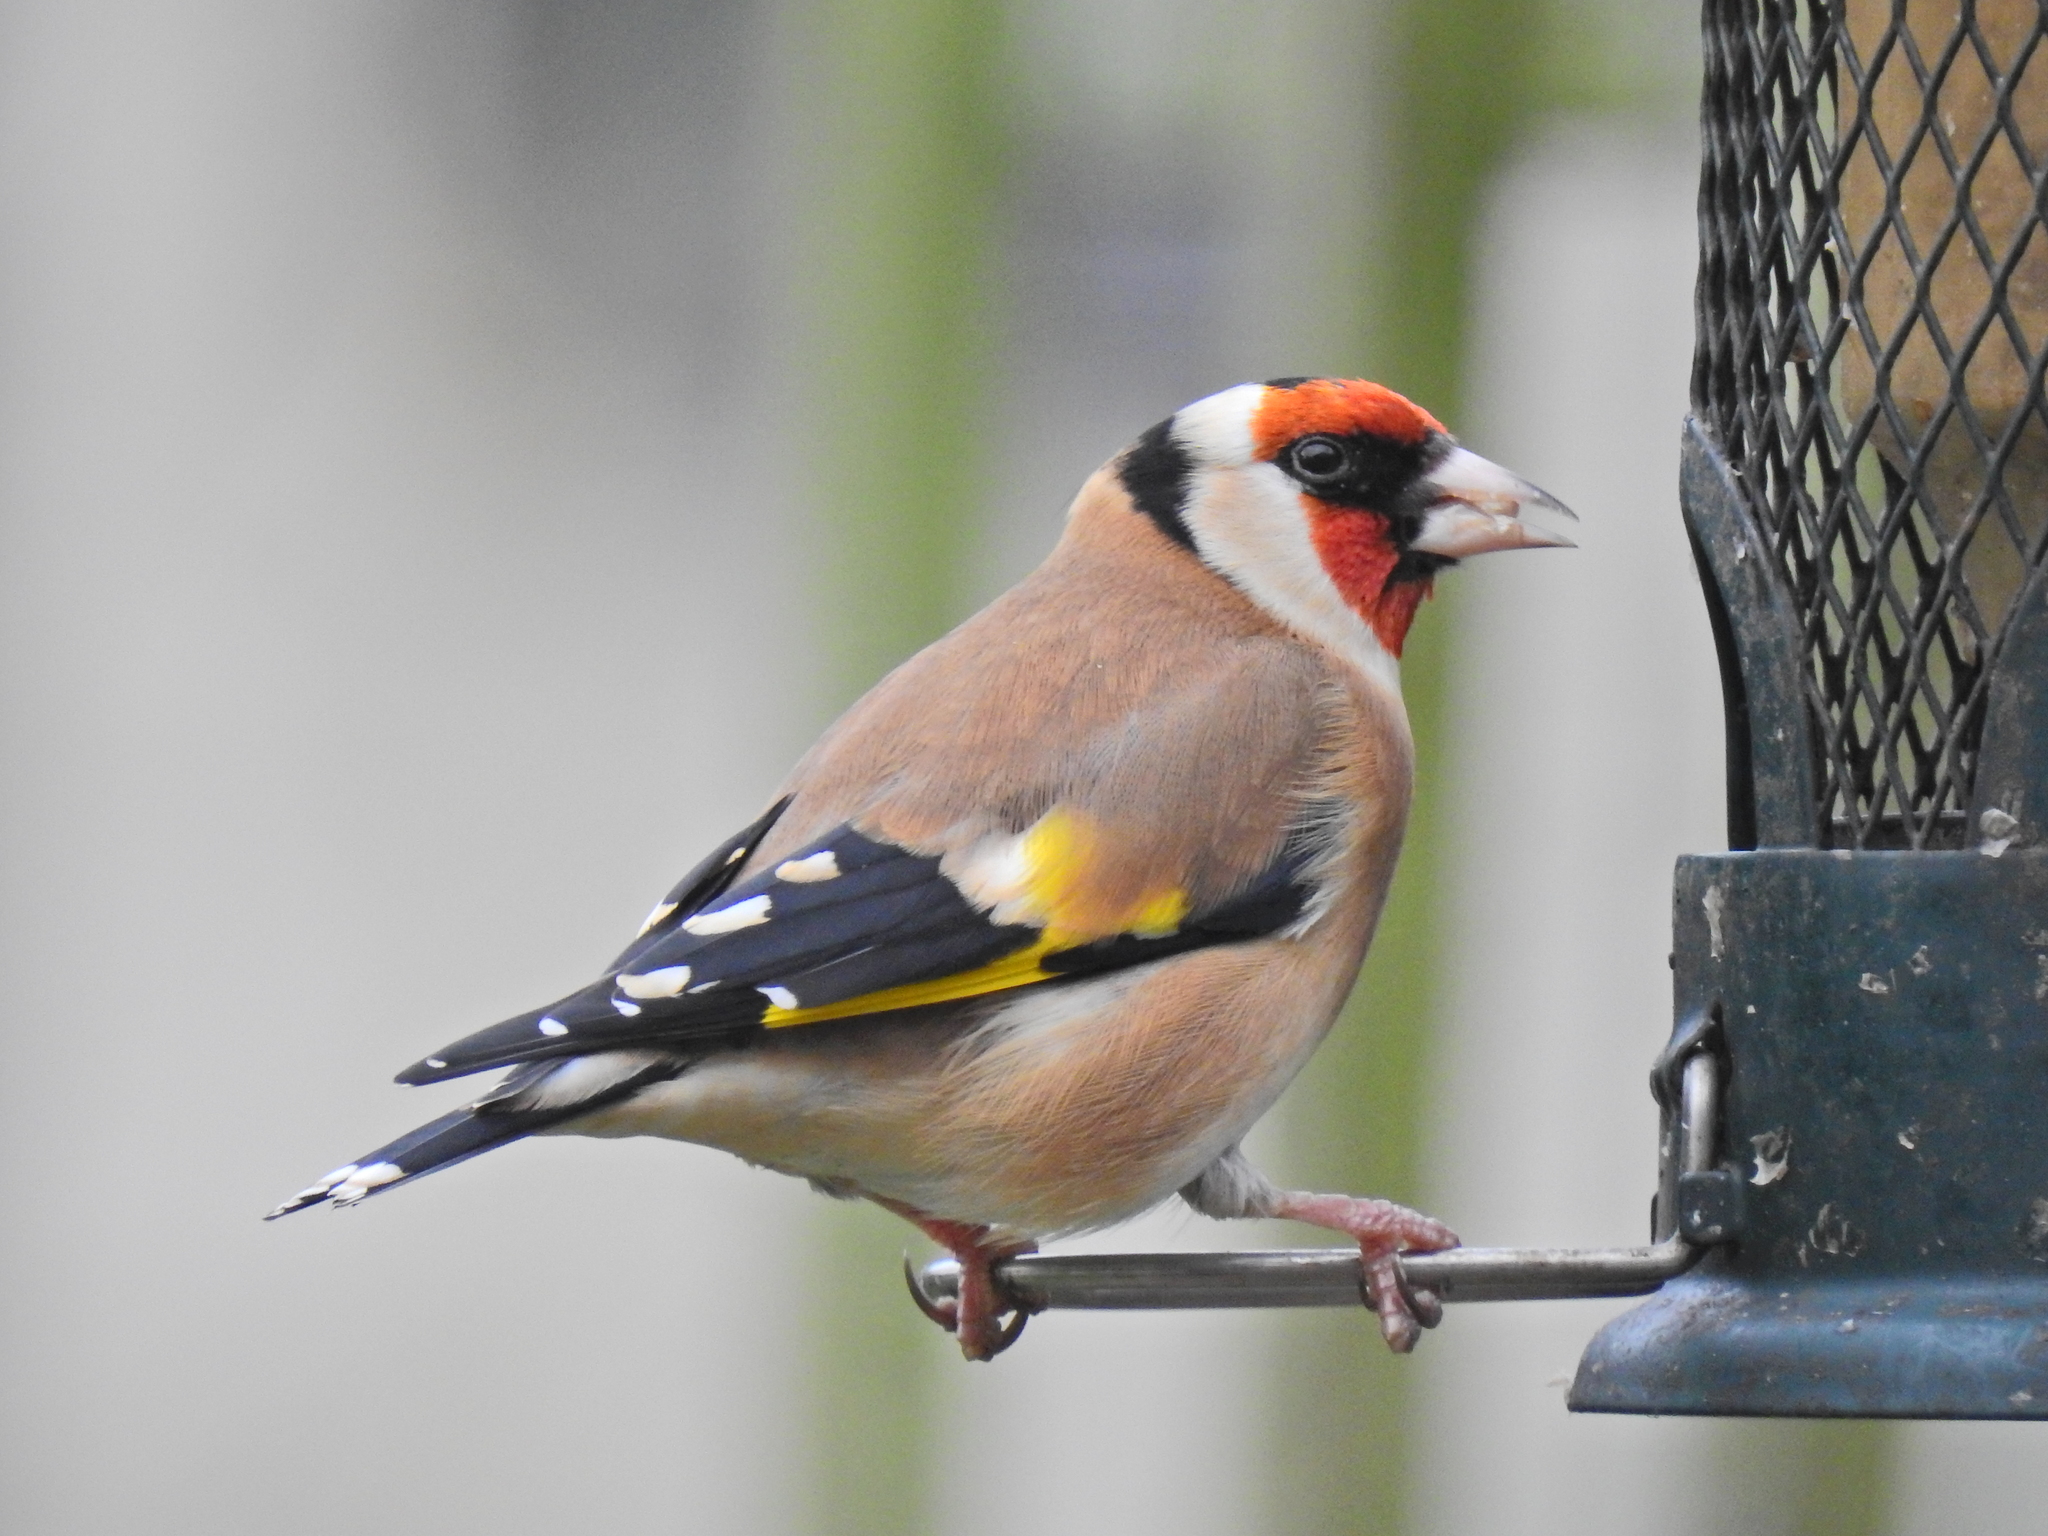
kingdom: Animalia
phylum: Chordata
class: Aves
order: Passeriformes
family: Fringillidae
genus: Carduelis
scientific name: Carduelis carduelis
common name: European goldfinch
